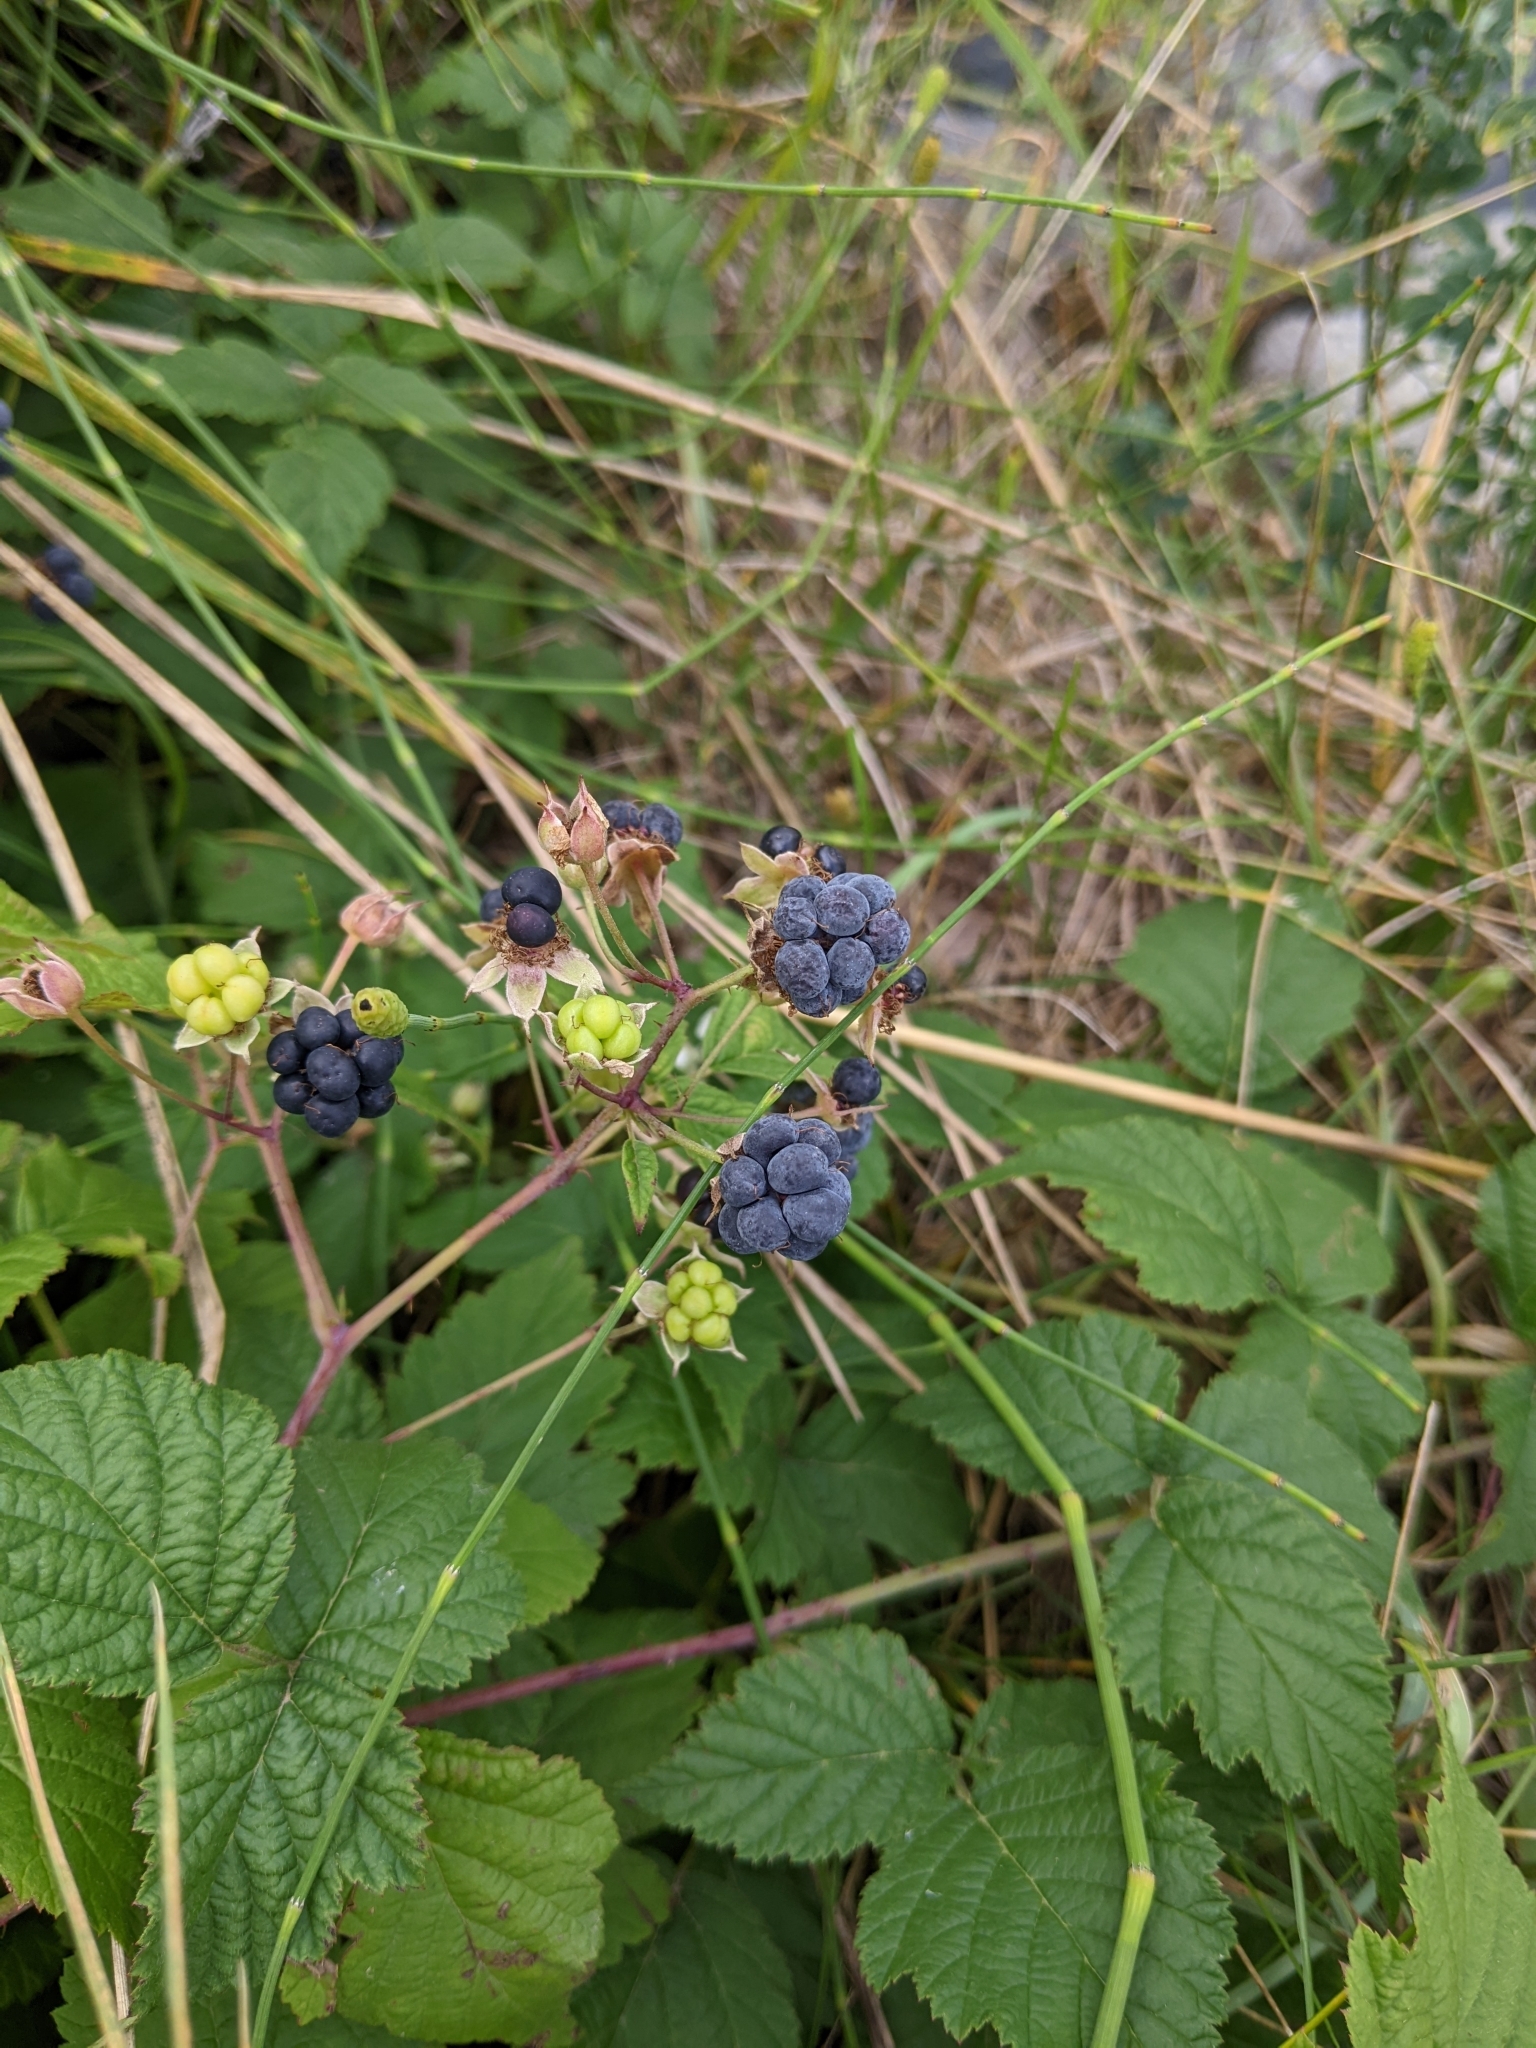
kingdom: Plantae
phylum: Tracheophyta
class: Magnoliopsida
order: Rosales
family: Rosaceae
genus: Rubus
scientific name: Rubus caesius
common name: Dewberry
